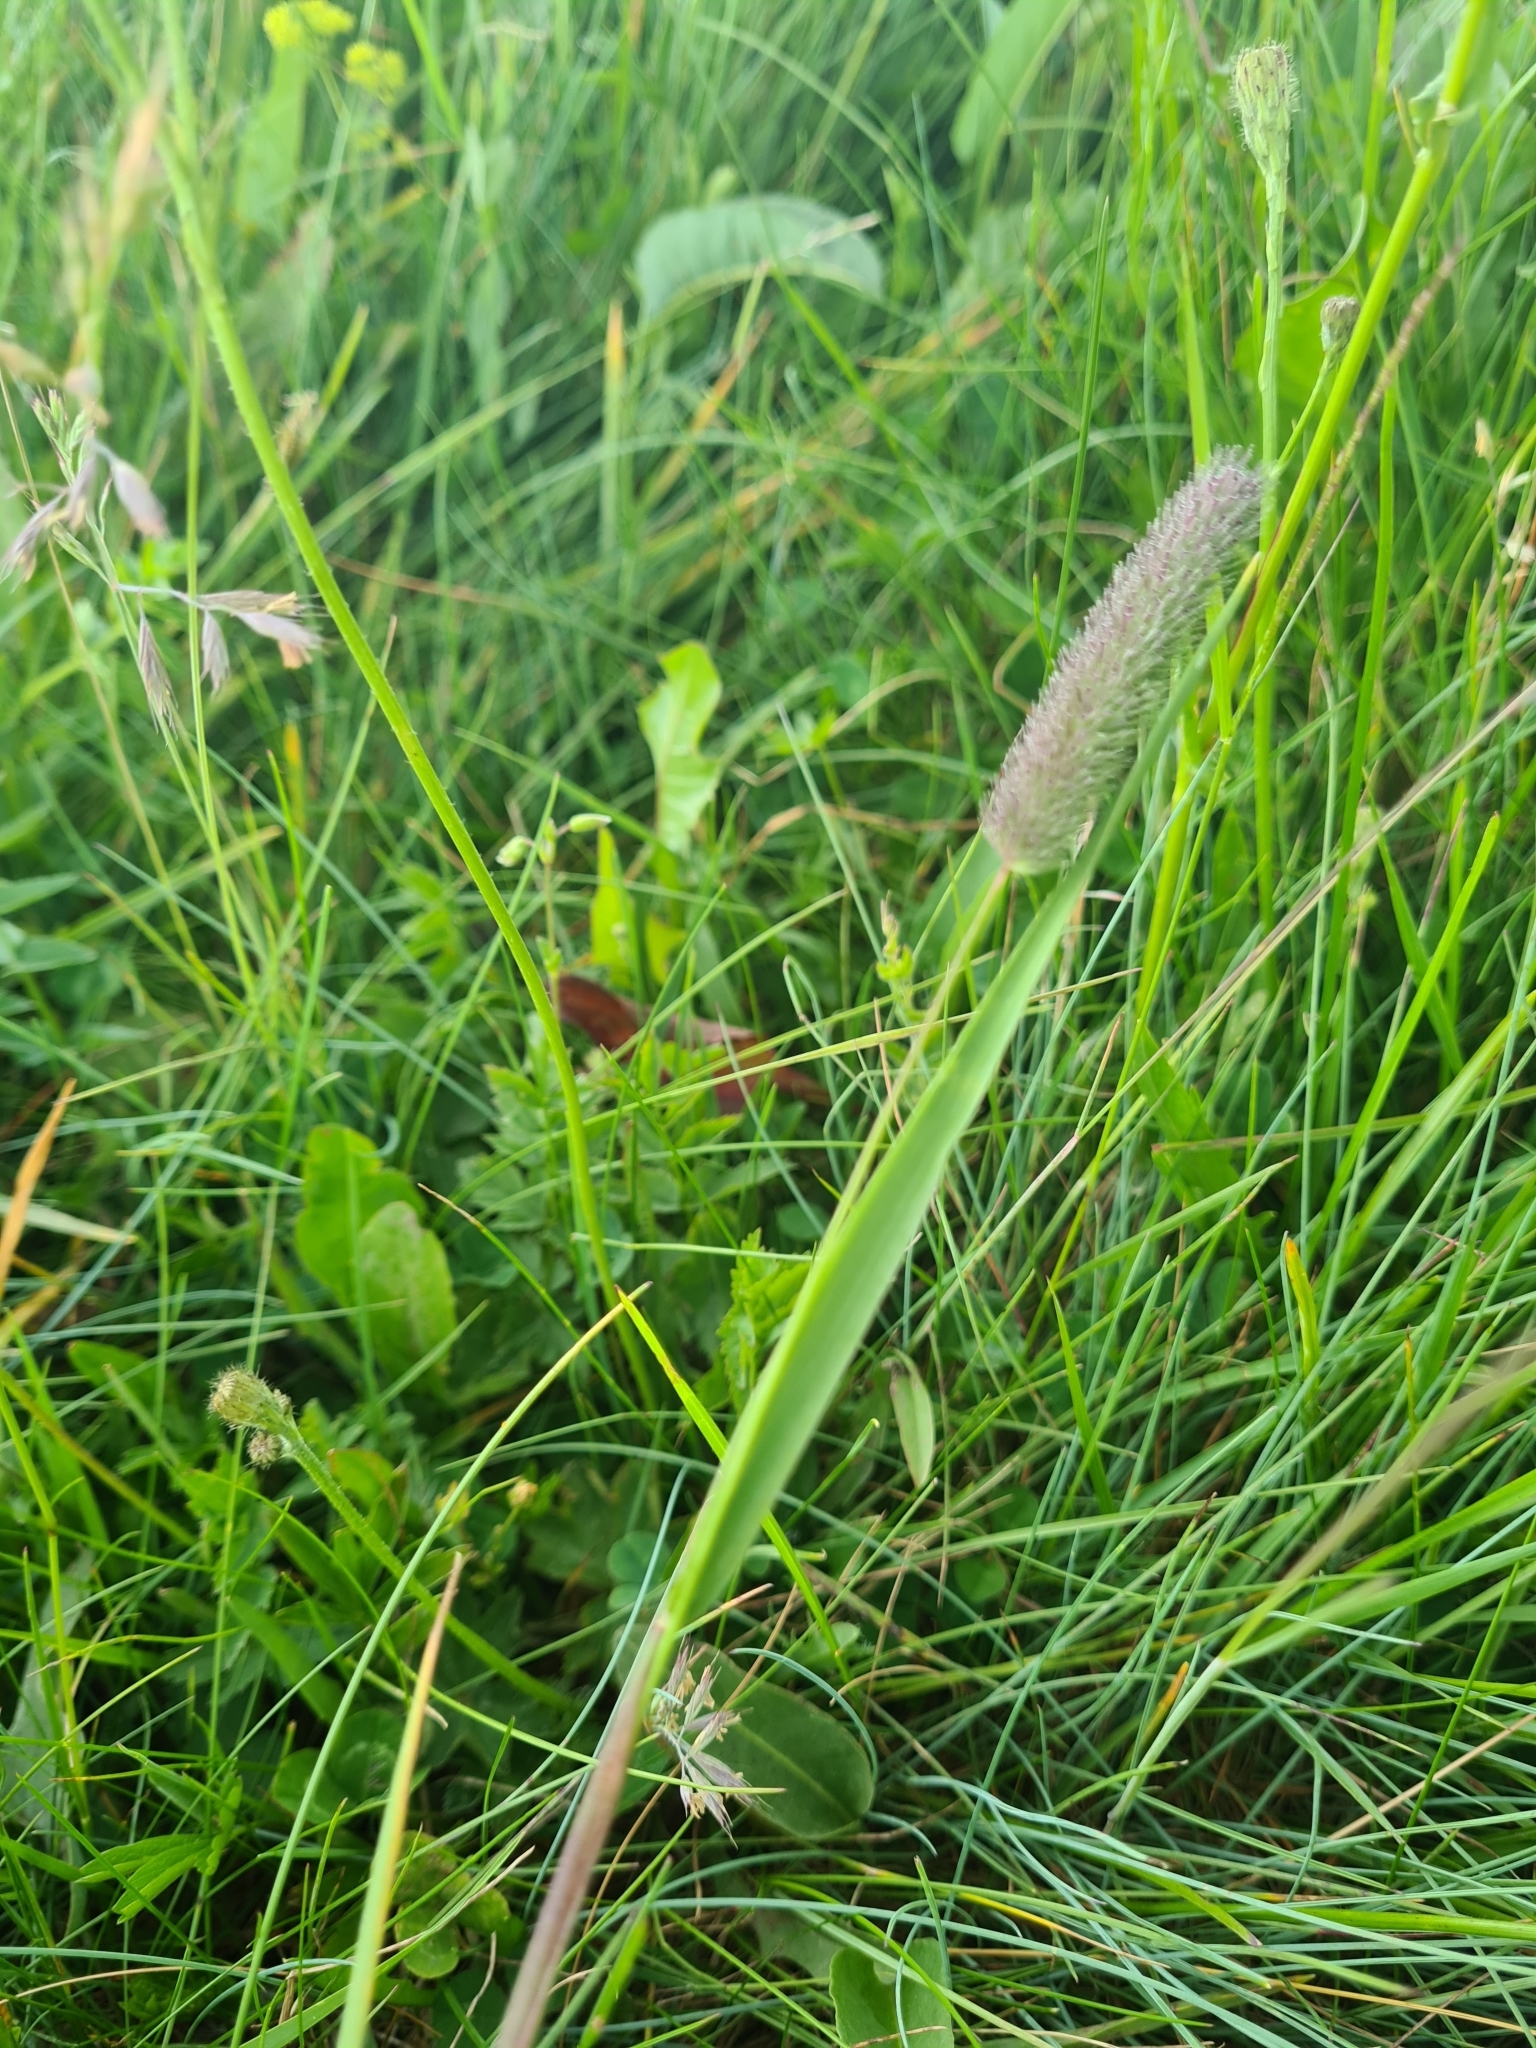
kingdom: Plantae
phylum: Tracheophyta
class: Liliopsida
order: Poales
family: Poaceae
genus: Phleum
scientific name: Phleum pratense
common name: Timothy grass
